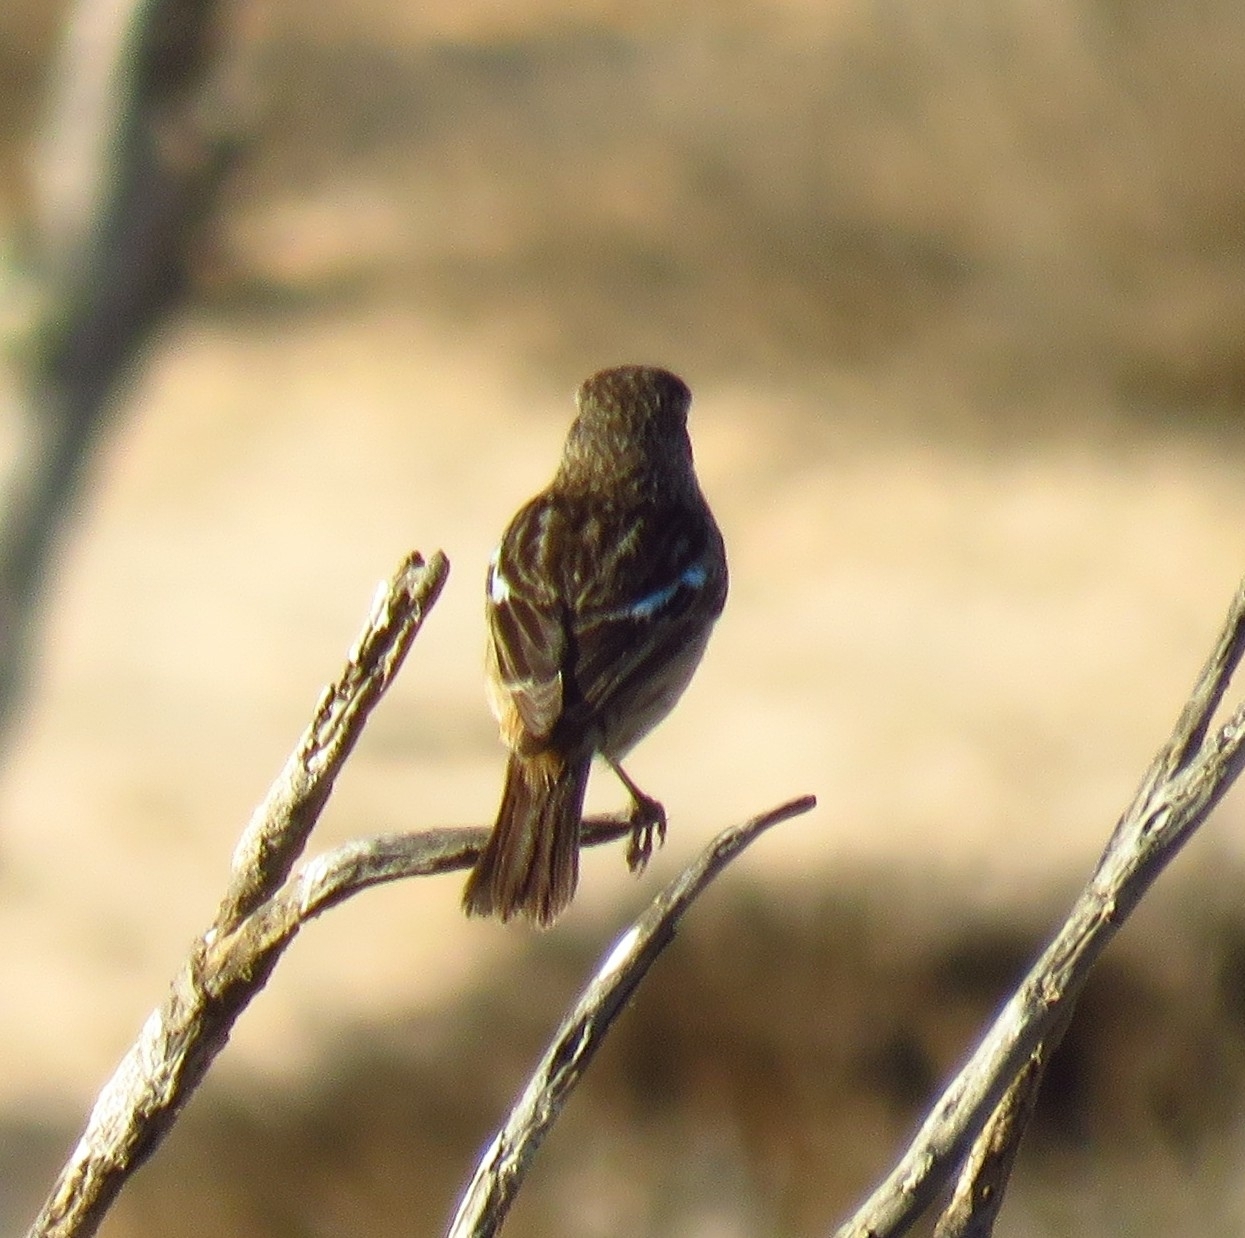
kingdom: Animalia
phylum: Chordata
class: Aves
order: Passeriformes
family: Muscicapidae
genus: Saxicola
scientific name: Saxicola rubicola
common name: European stonechat
